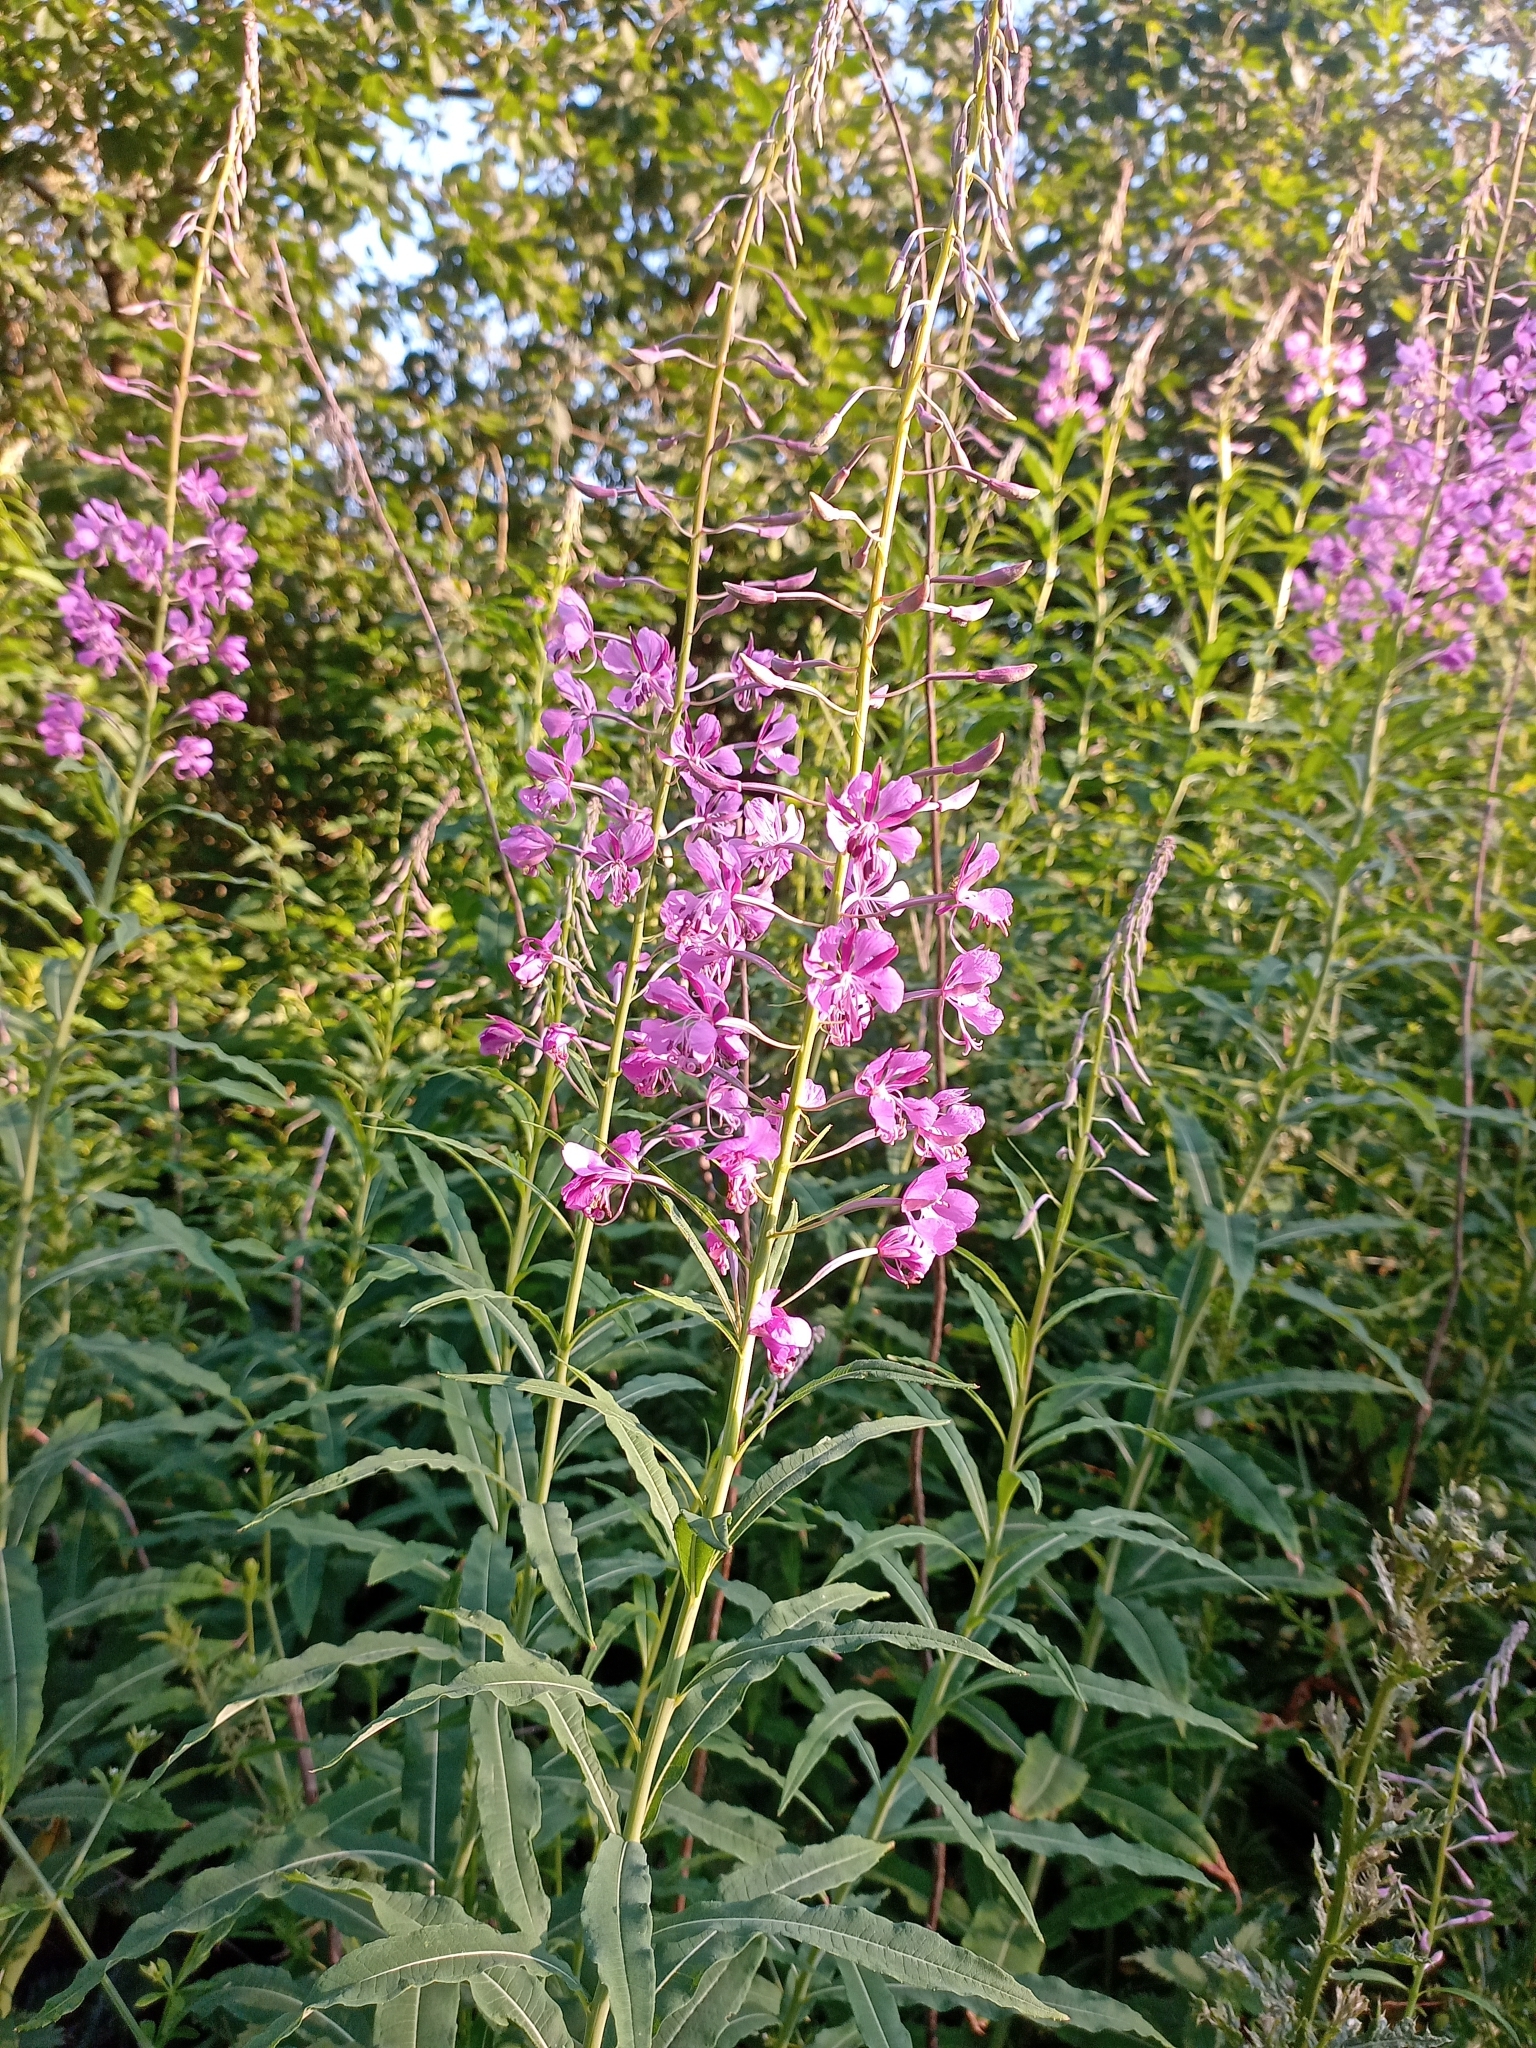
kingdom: Plantae
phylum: Tracheophyta
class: Magnoliopsida
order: Myrtales
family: Onagraceae
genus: Chamaenerion
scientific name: Chamaenerion angustifolium
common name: Fireweed
